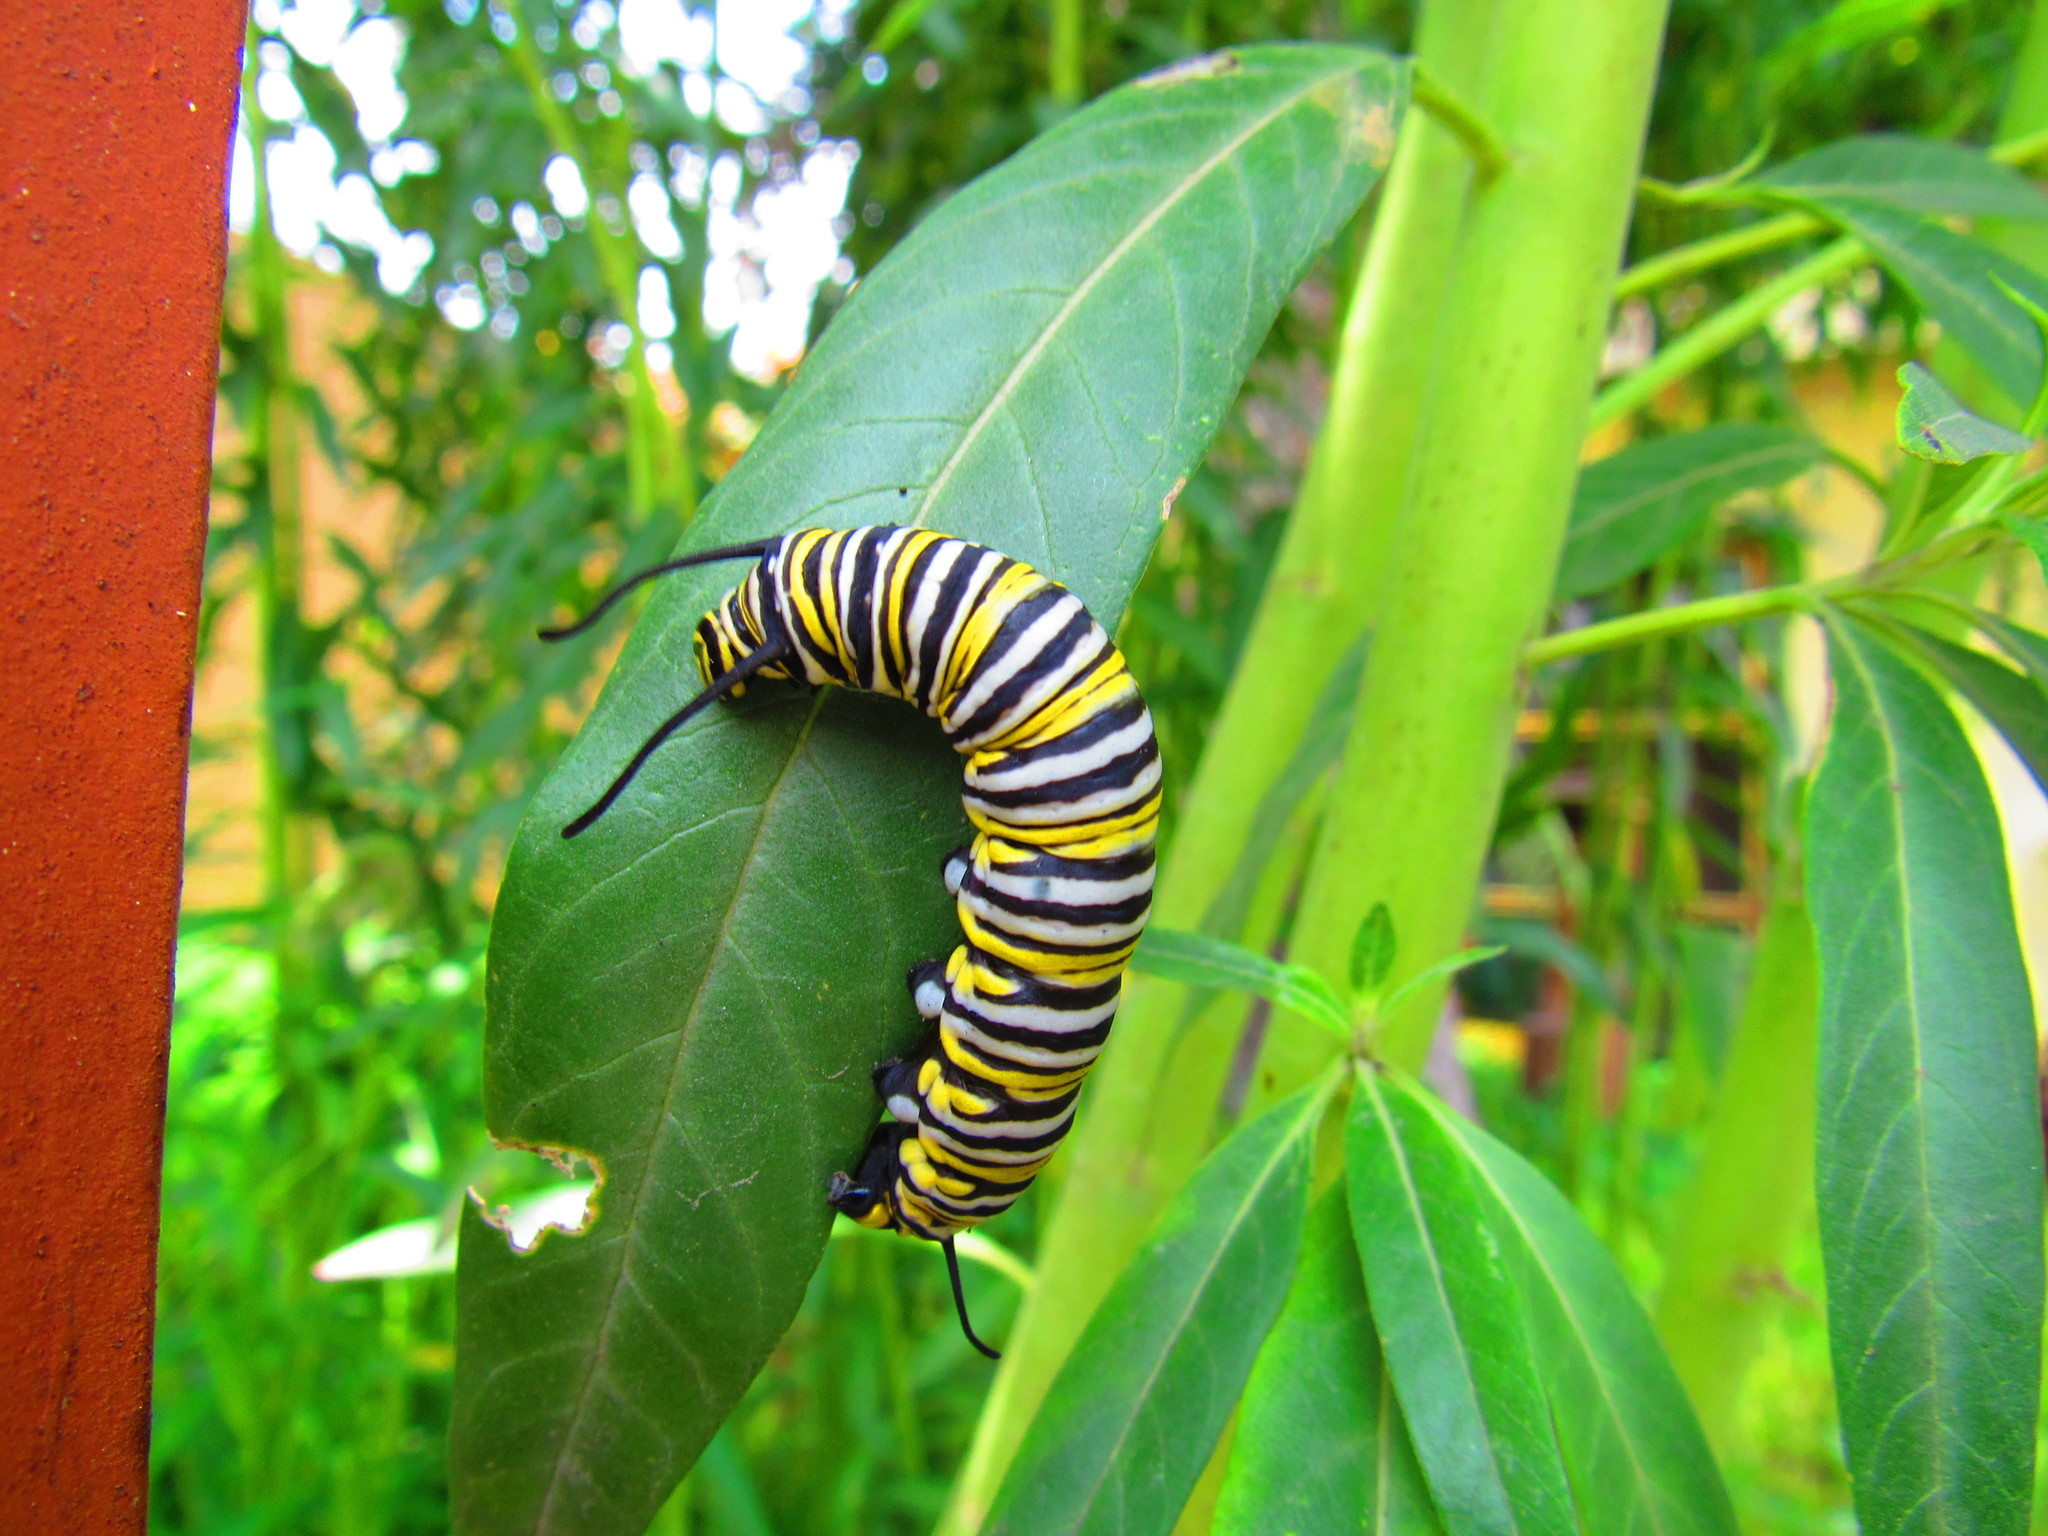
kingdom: Animalia
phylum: Arthropoda
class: Insecta
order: Lepidoptera
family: Nymphalidae
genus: Danaus
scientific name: Danaus plexippus
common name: Monarch
